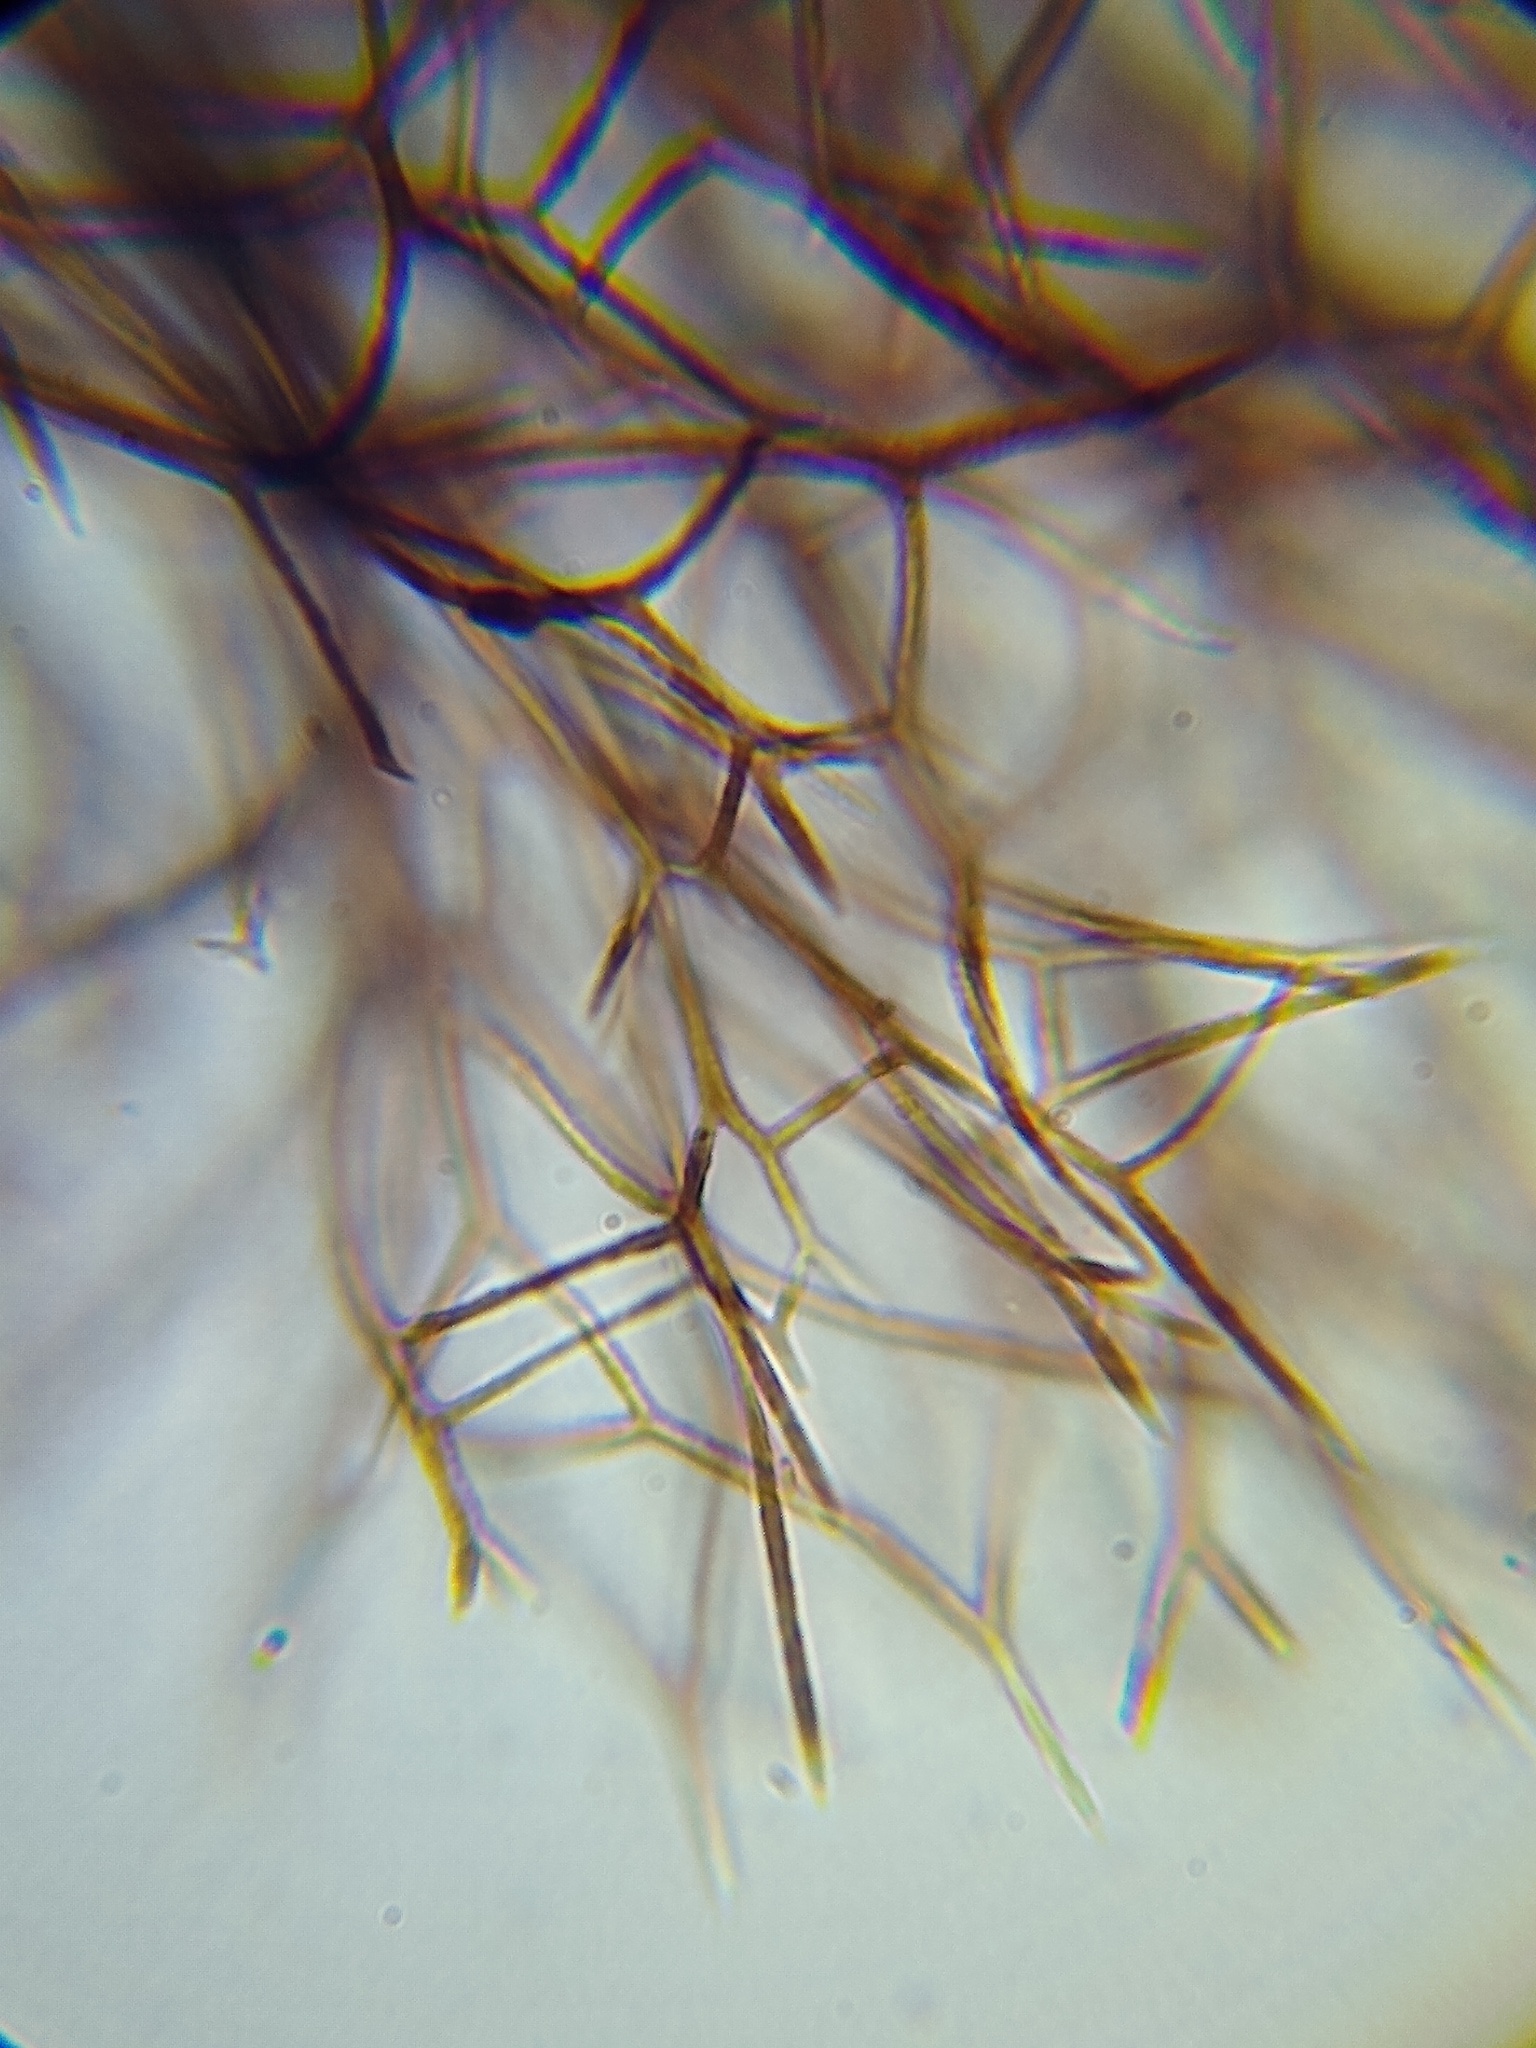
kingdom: Protozoa
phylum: Mycetozoa
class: Myxomycetes
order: Stemonitidales
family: Stemonitidaceae
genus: Lamproderma
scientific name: Lamproderma scintillans
